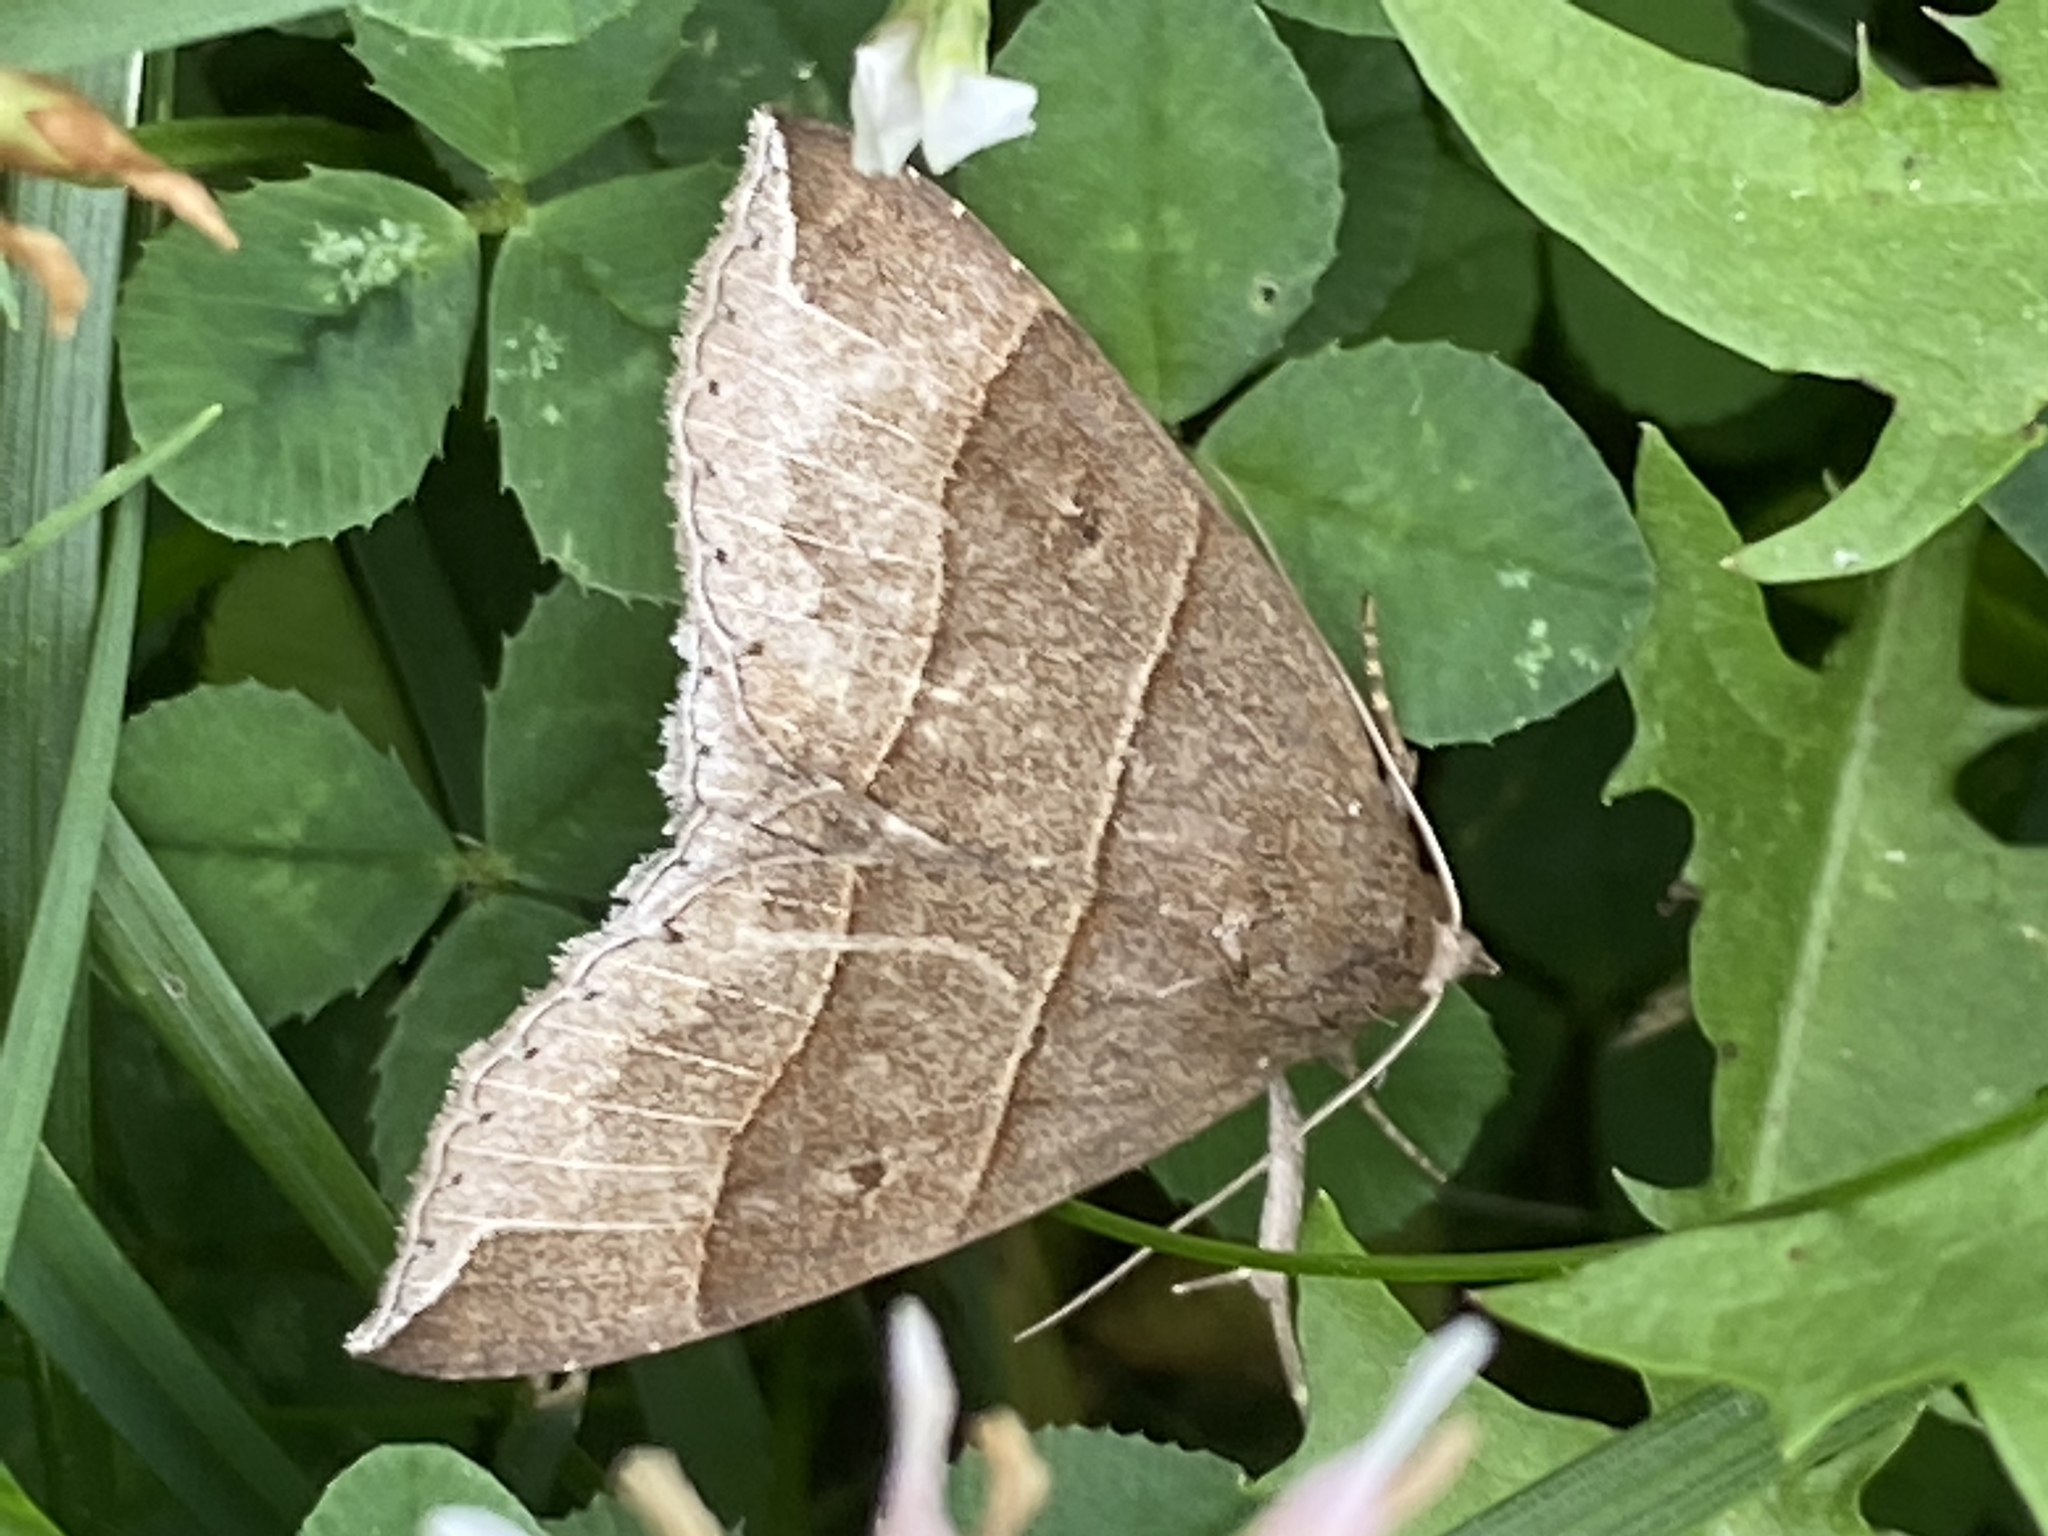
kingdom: Animalia
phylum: Arthropoda
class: Insecta
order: Lepidoptera
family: Erebidae
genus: Parallelia
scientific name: Parallelia bistriaris
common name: Maple looper moth
